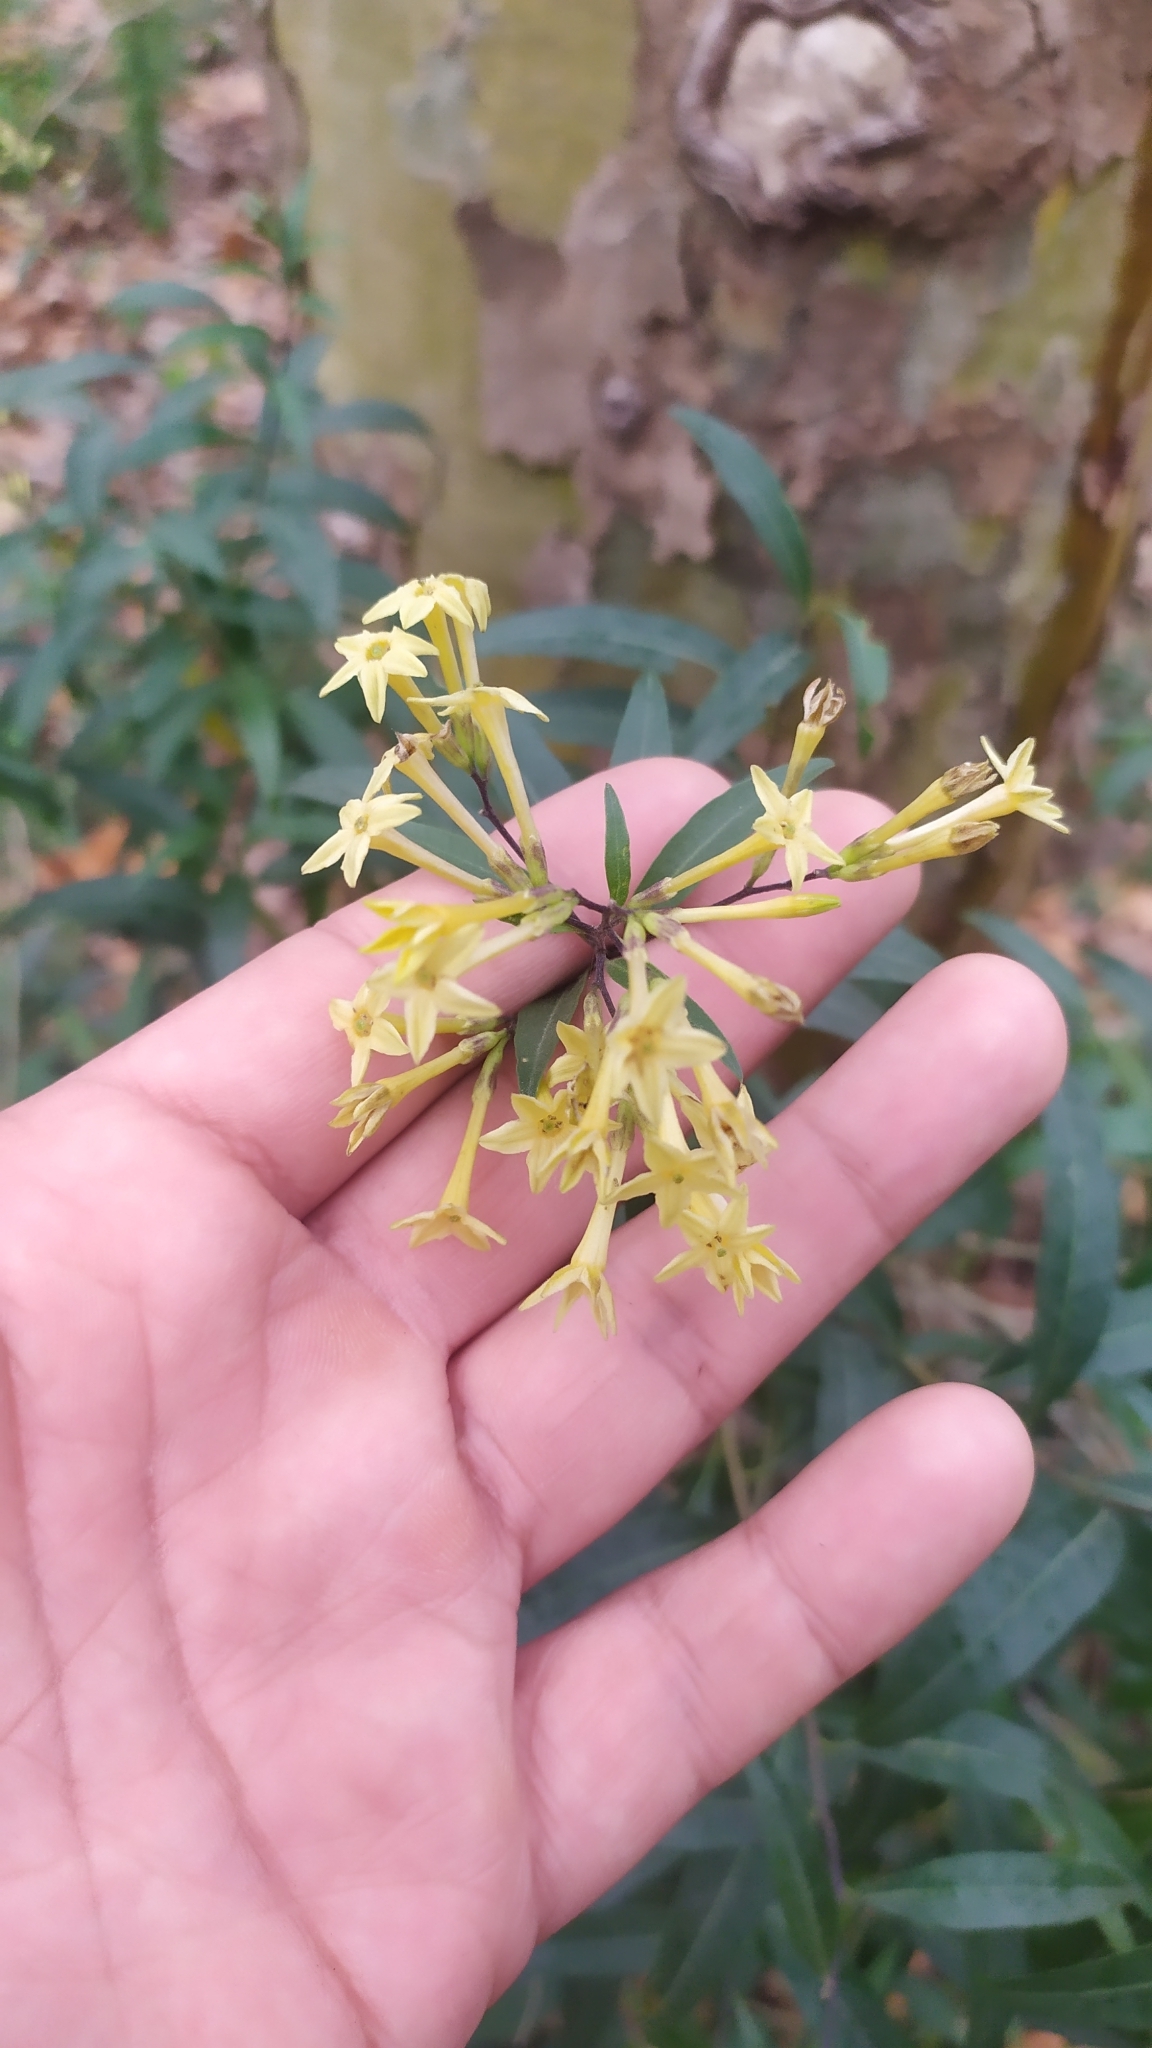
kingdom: Plantae
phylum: Tracheophyta
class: Magnoliopsida
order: Solanales
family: Solanaceae
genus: Cestrum
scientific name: Cestrum parqui
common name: Chilean cestrum
